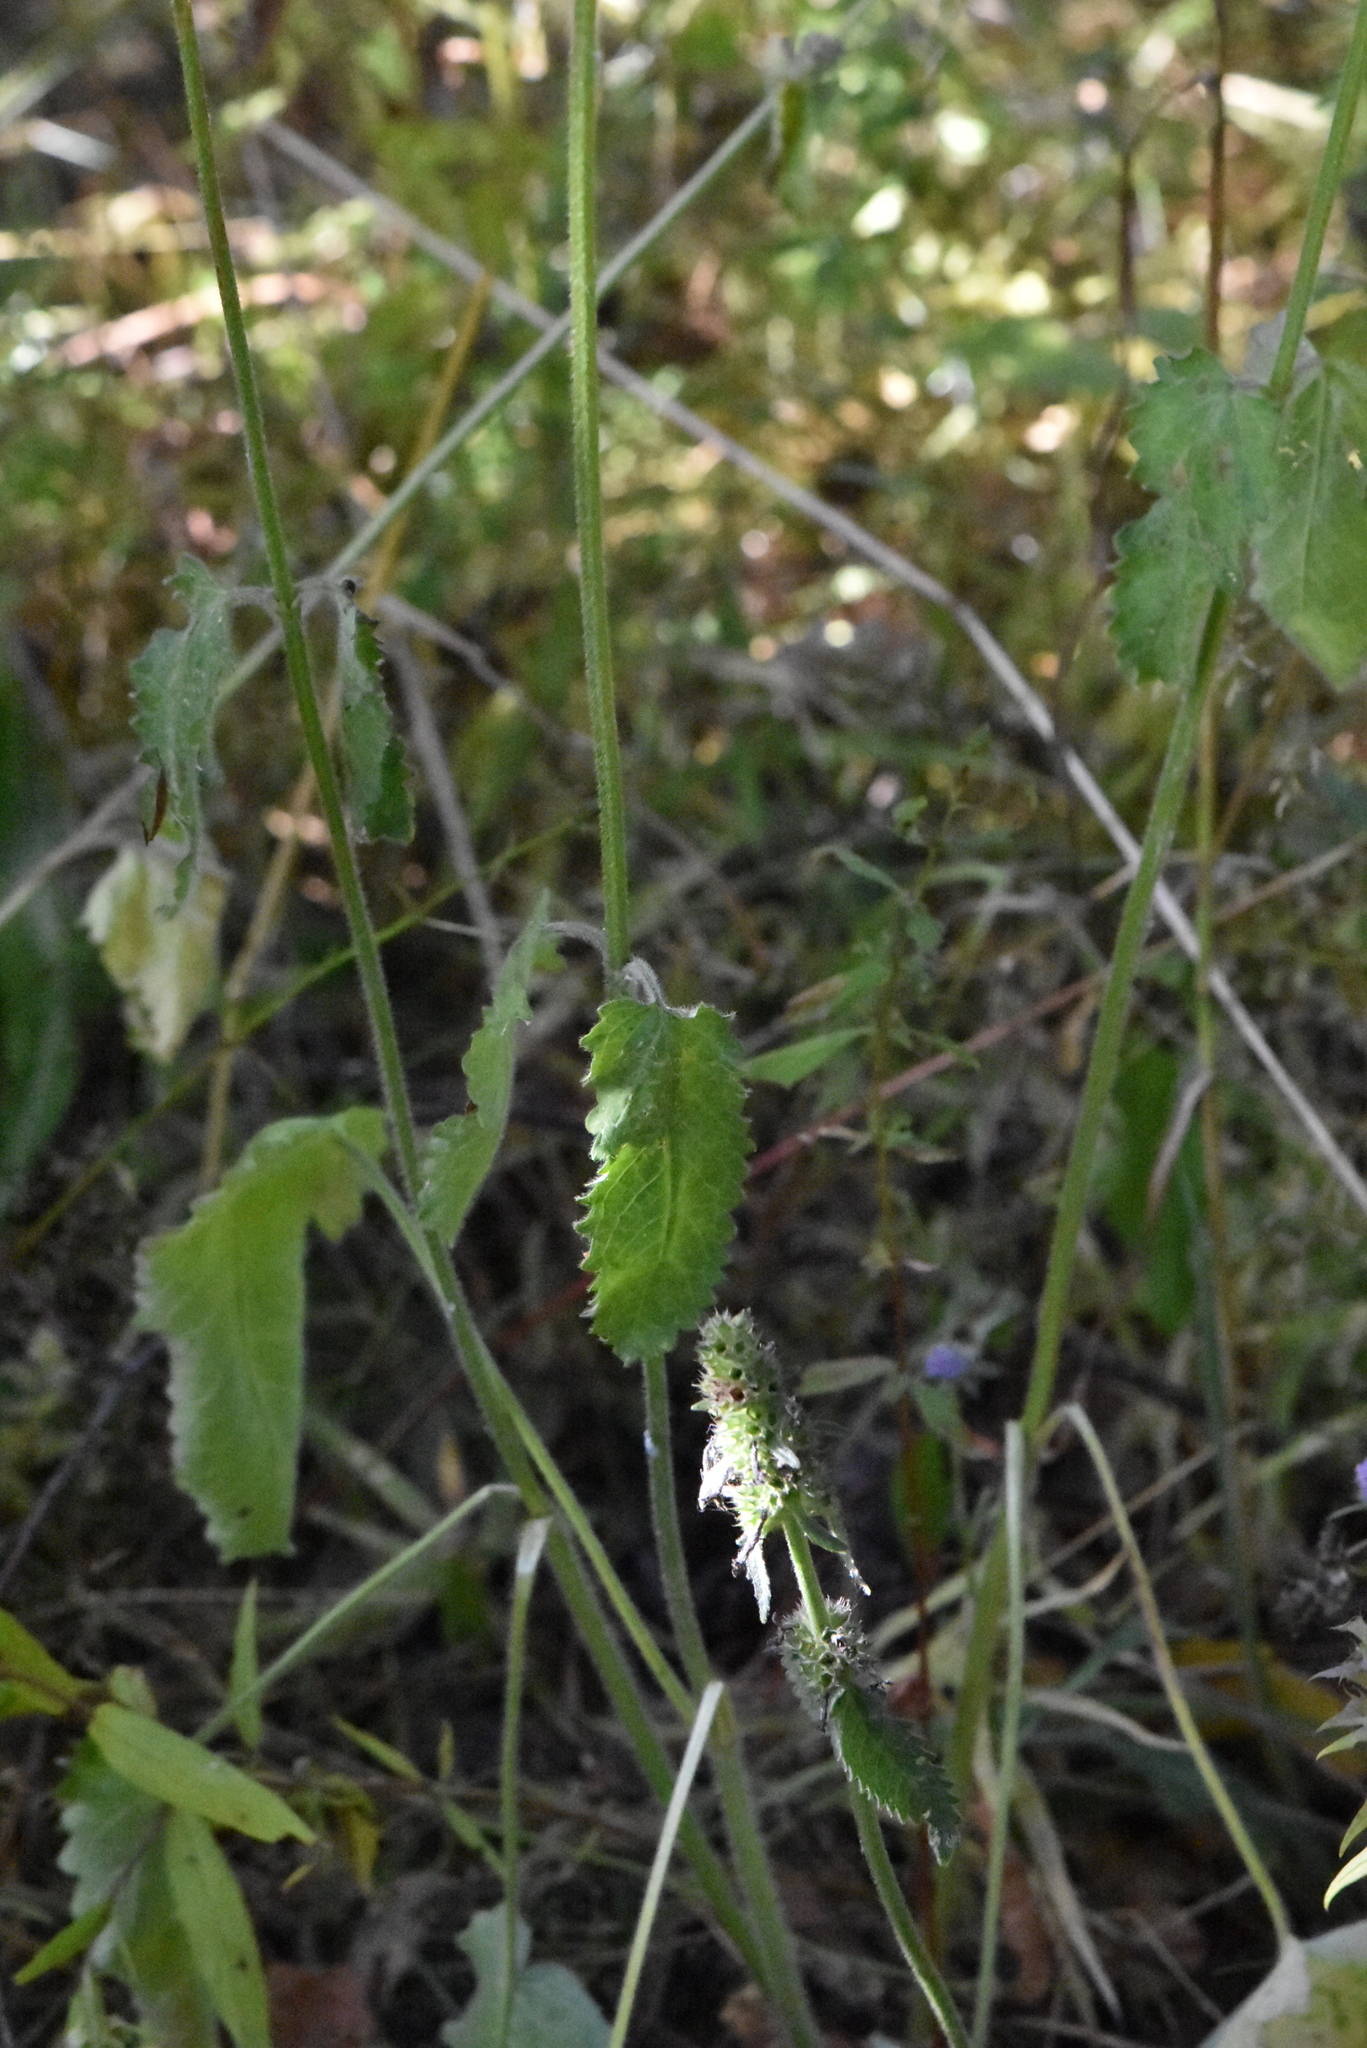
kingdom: Plantae
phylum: Tracheophyta
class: Magnoliopsida
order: Lamiales
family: Lamiaceae
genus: Betonica
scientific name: Betonica officinalis
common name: Bishop's-wort
